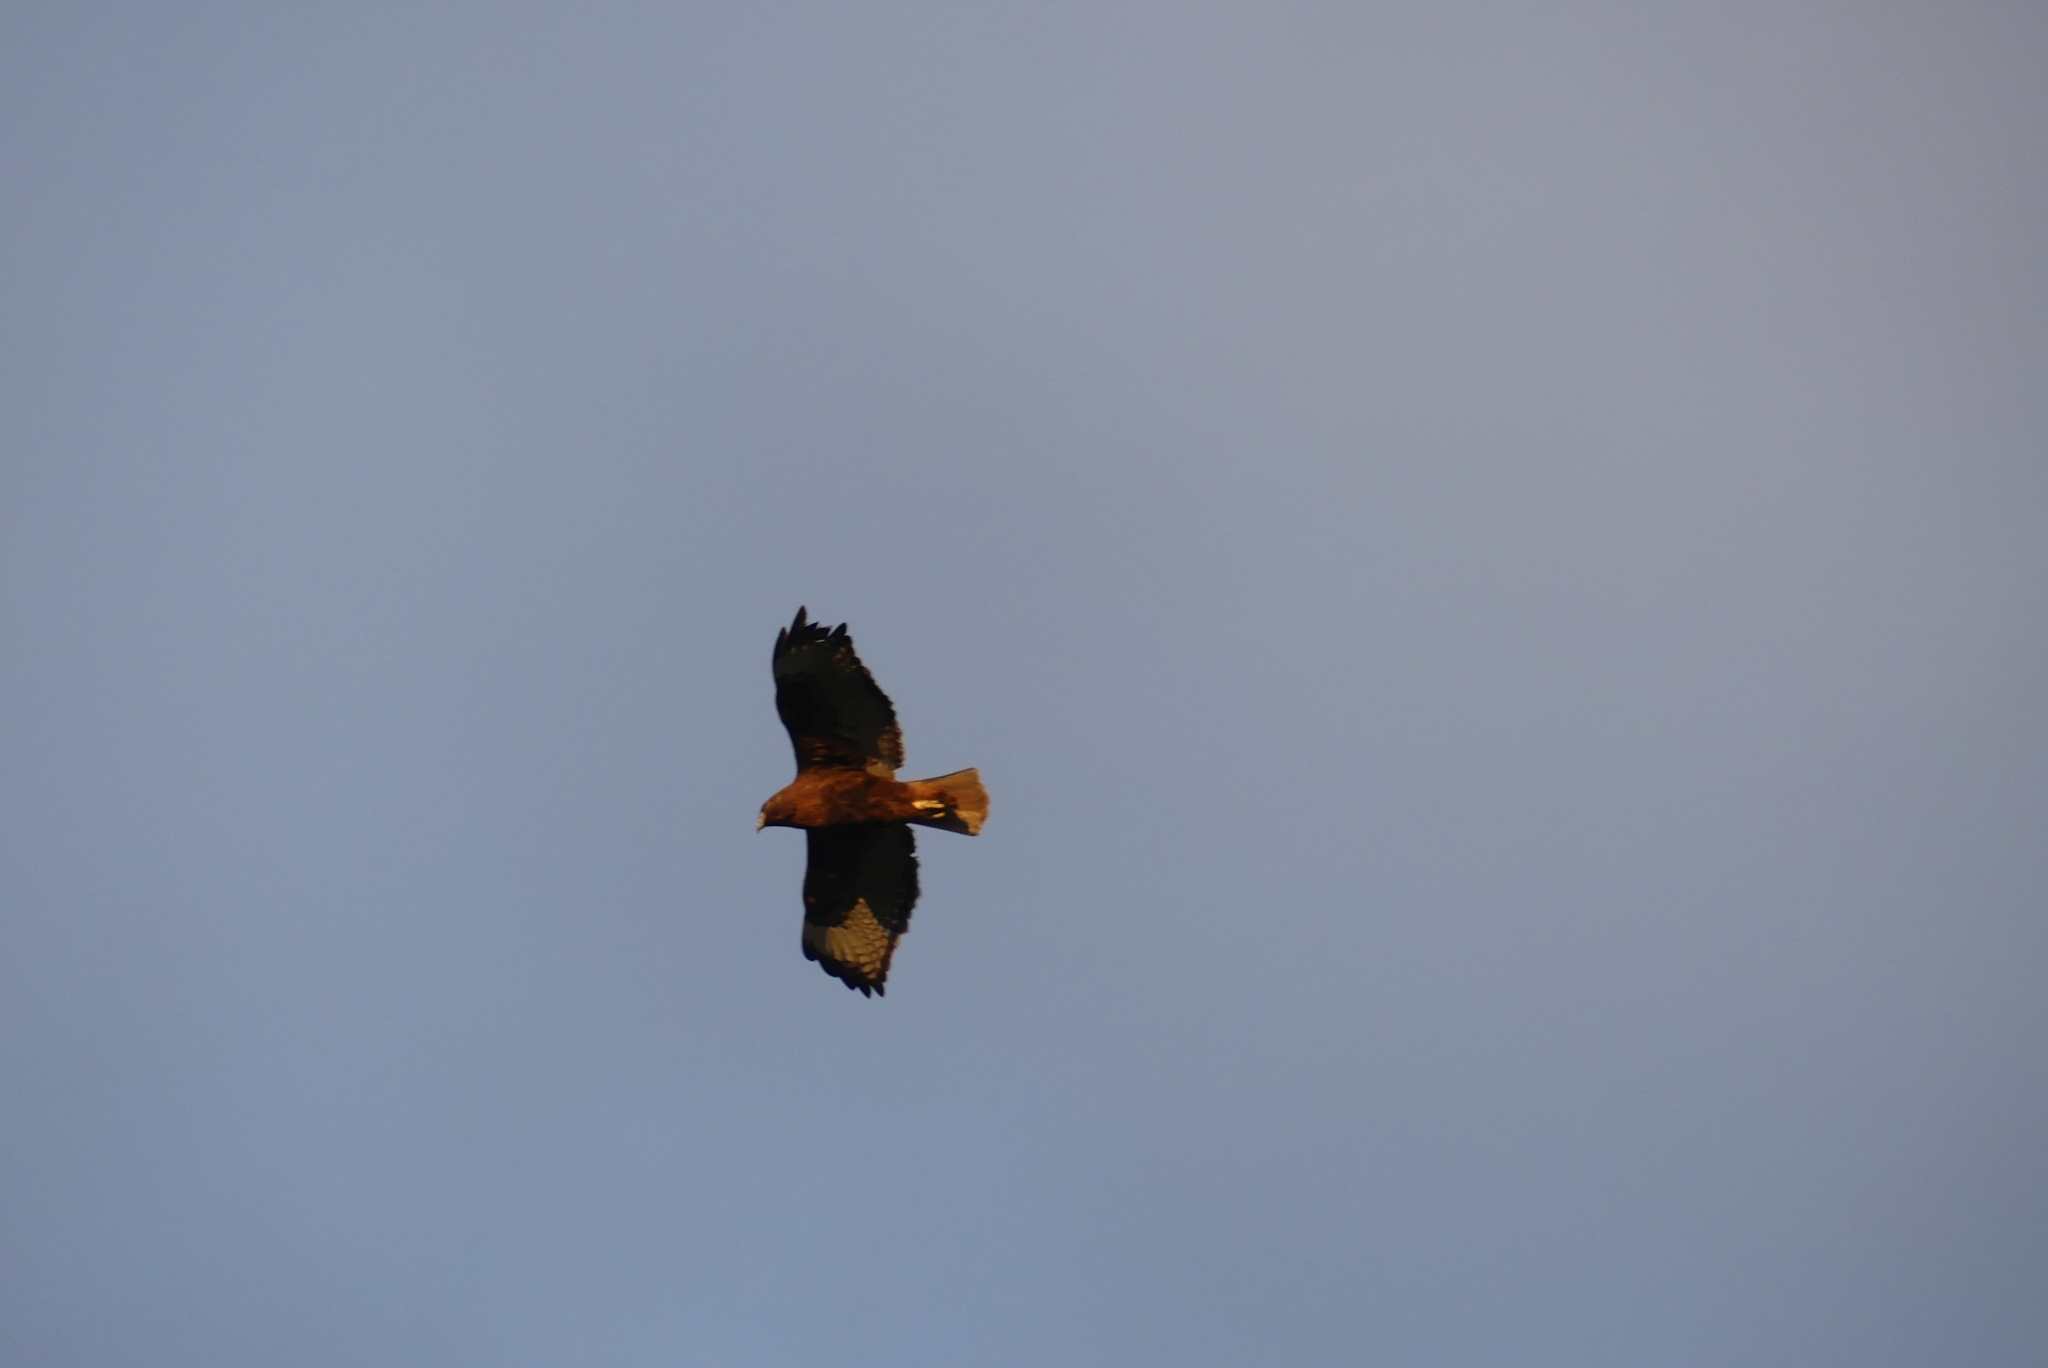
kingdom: Animalia
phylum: Chordata
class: Aves
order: Accipitriformes
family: Accipitridae
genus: Buteo
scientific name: Buteo jamaicensis
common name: Red-tailed hawk
